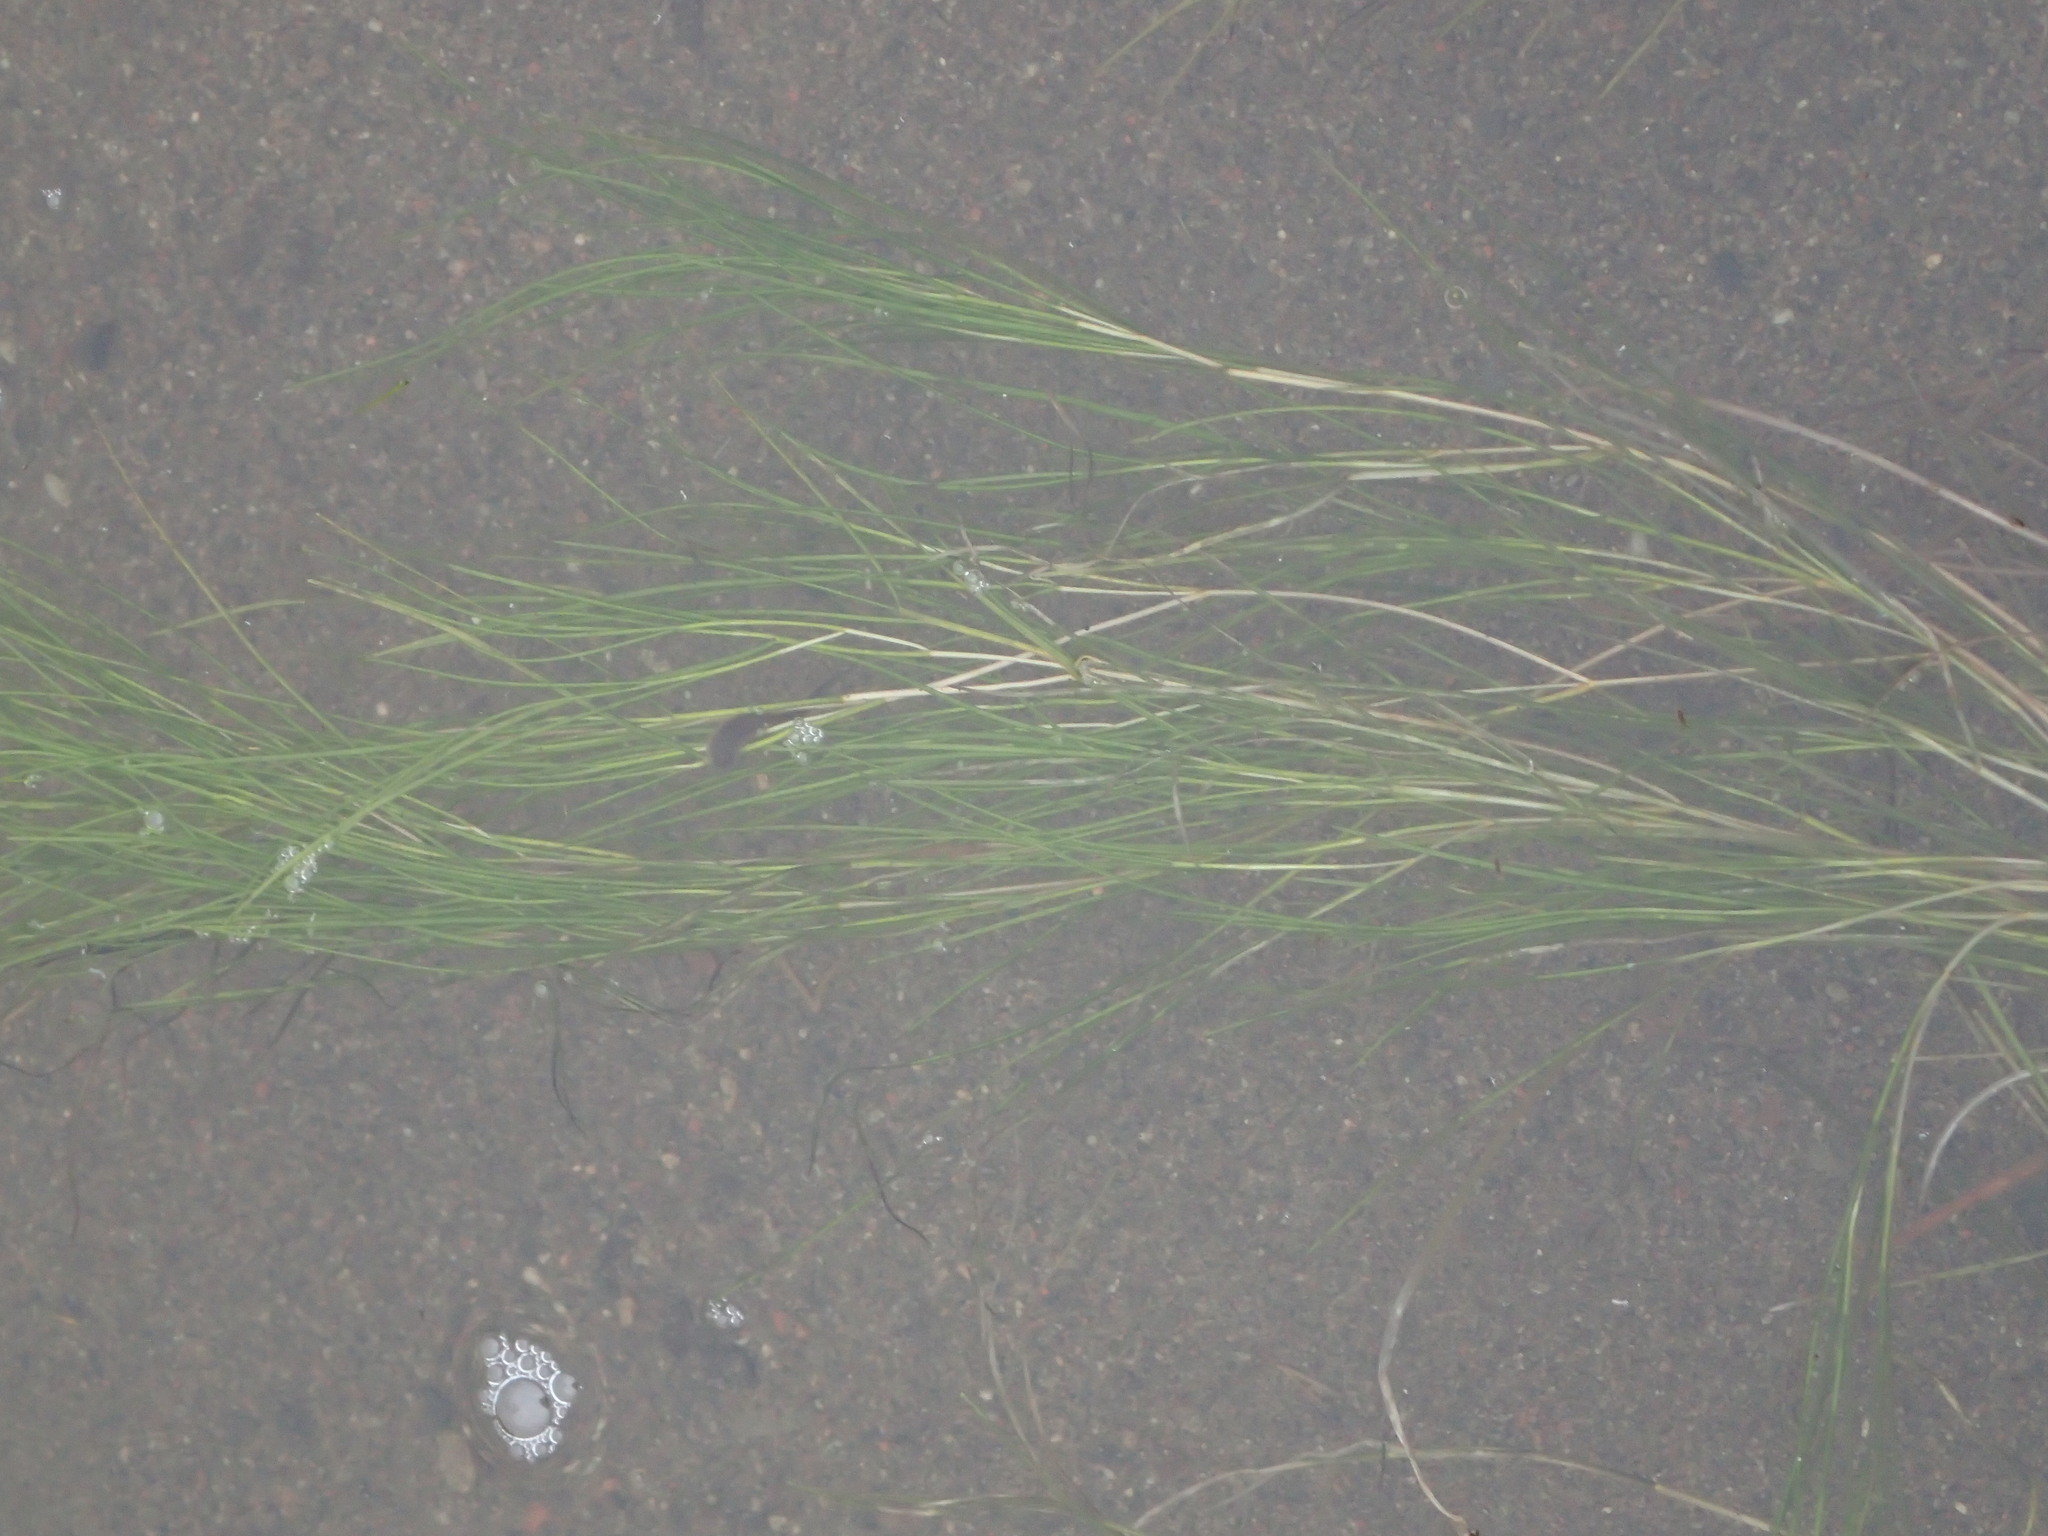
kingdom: Plantae
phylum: Tracheophyta
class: Liliopsida
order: Alismatales
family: Potamogetonaceae
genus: Stuckenia
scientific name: Stuckenia pectinata
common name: Sago pondweed
